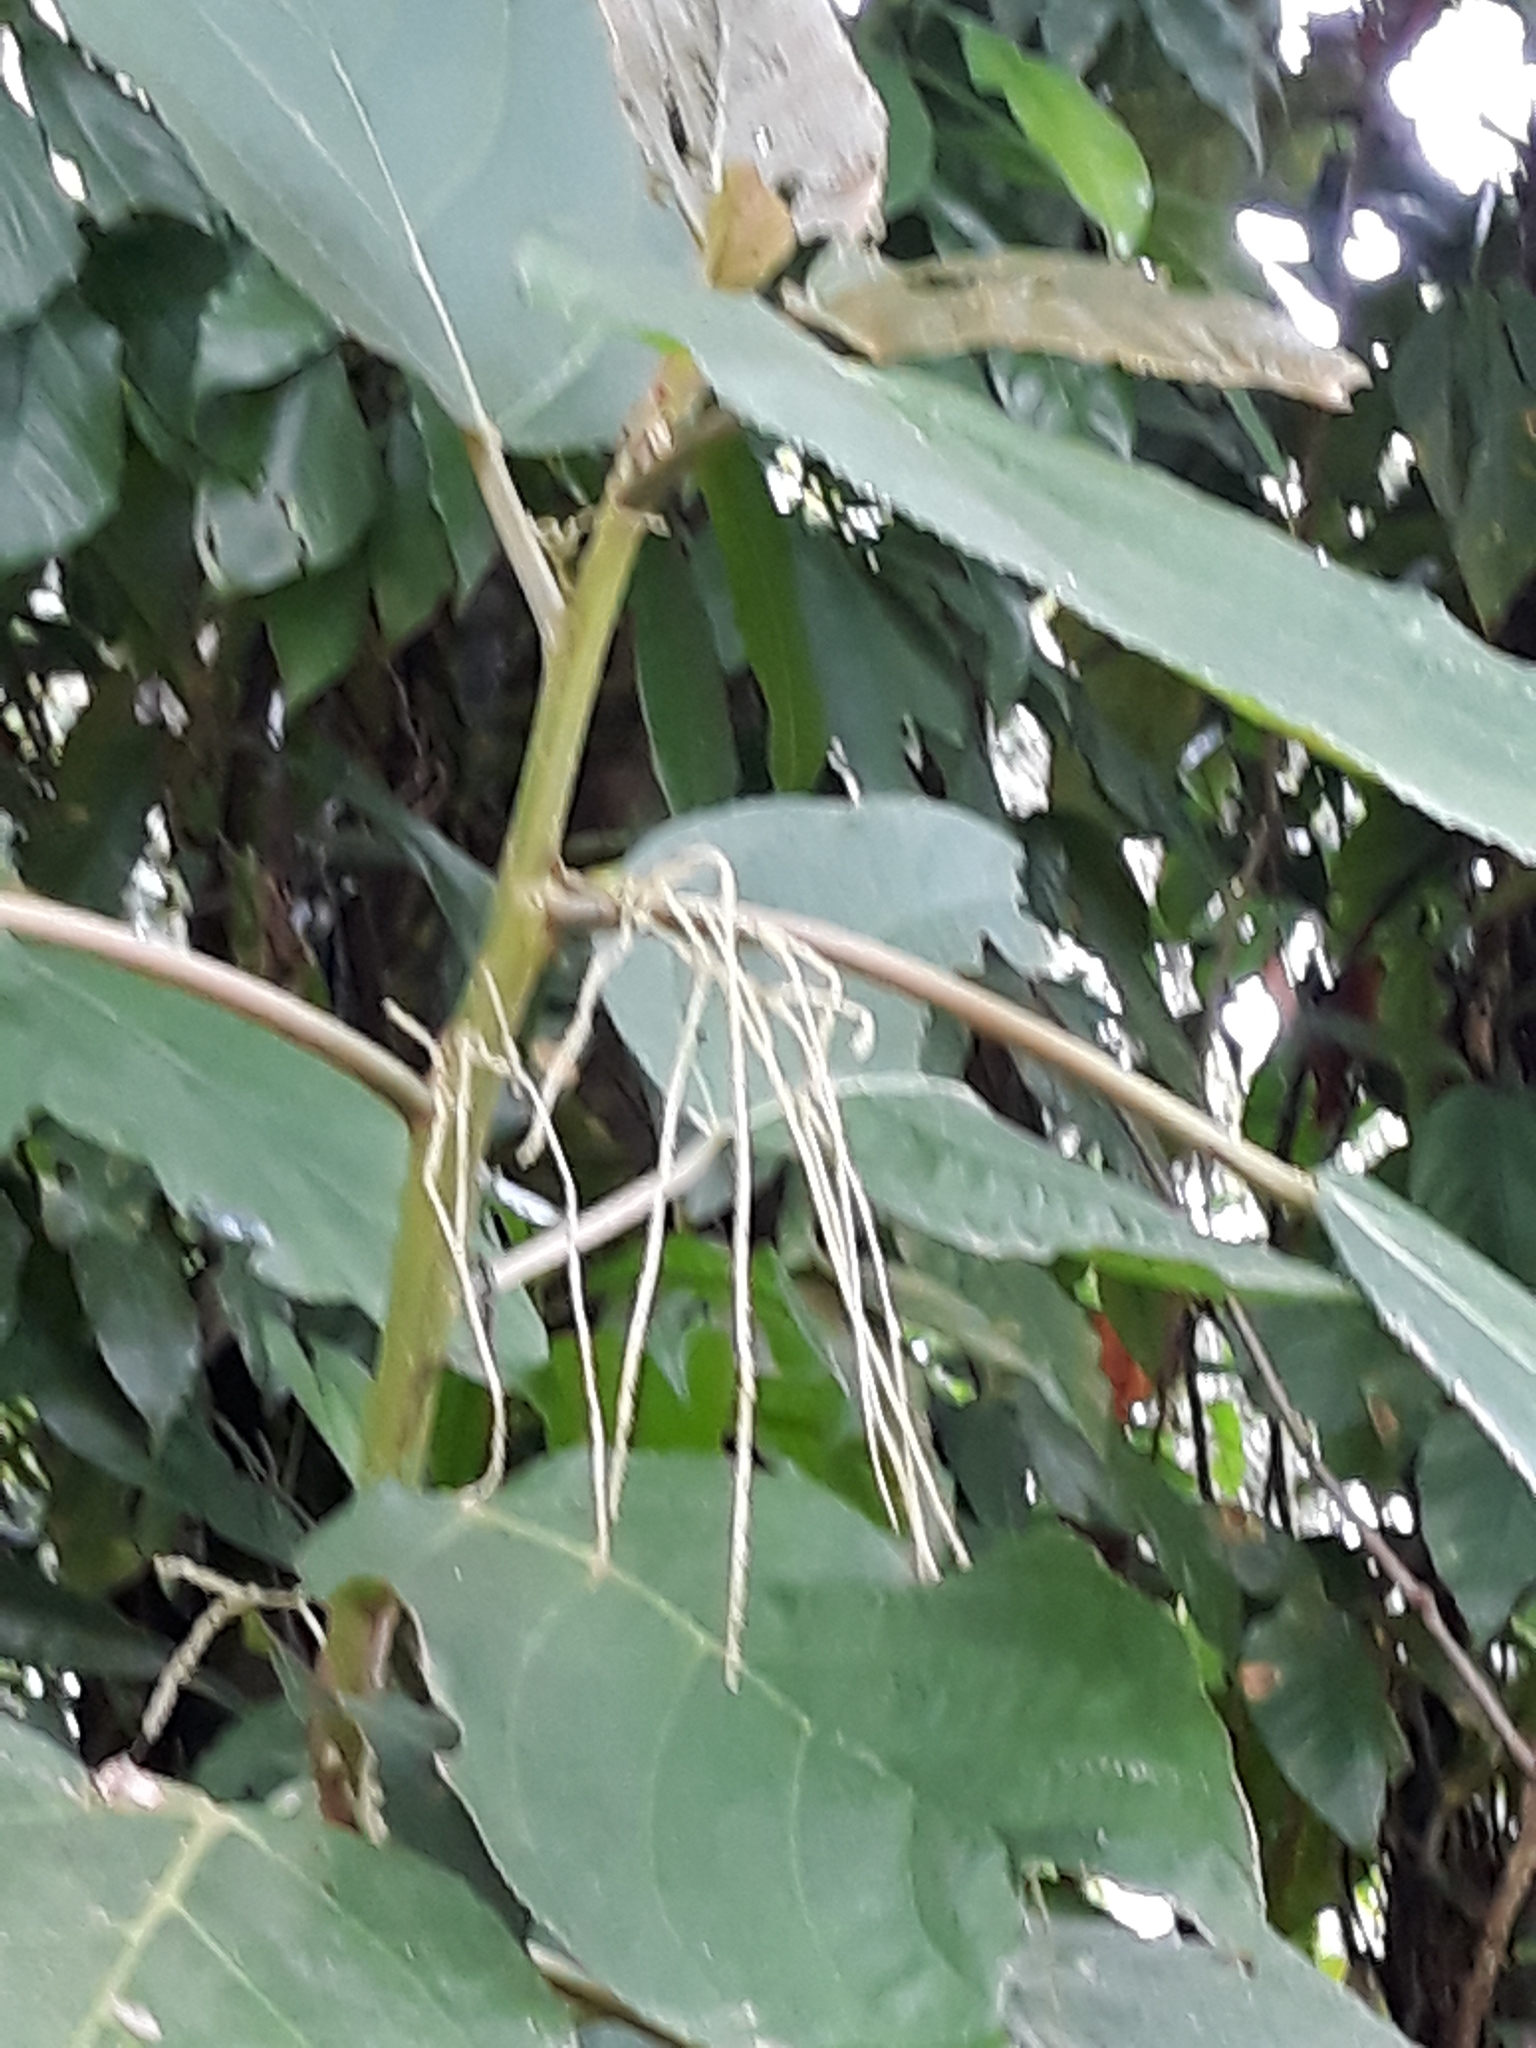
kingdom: Plantae
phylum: Tracheophyta
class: Magnoliopsida
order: Rosales
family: Urticaceae
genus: Myriocarpa
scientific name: Myriocarpa longipes
